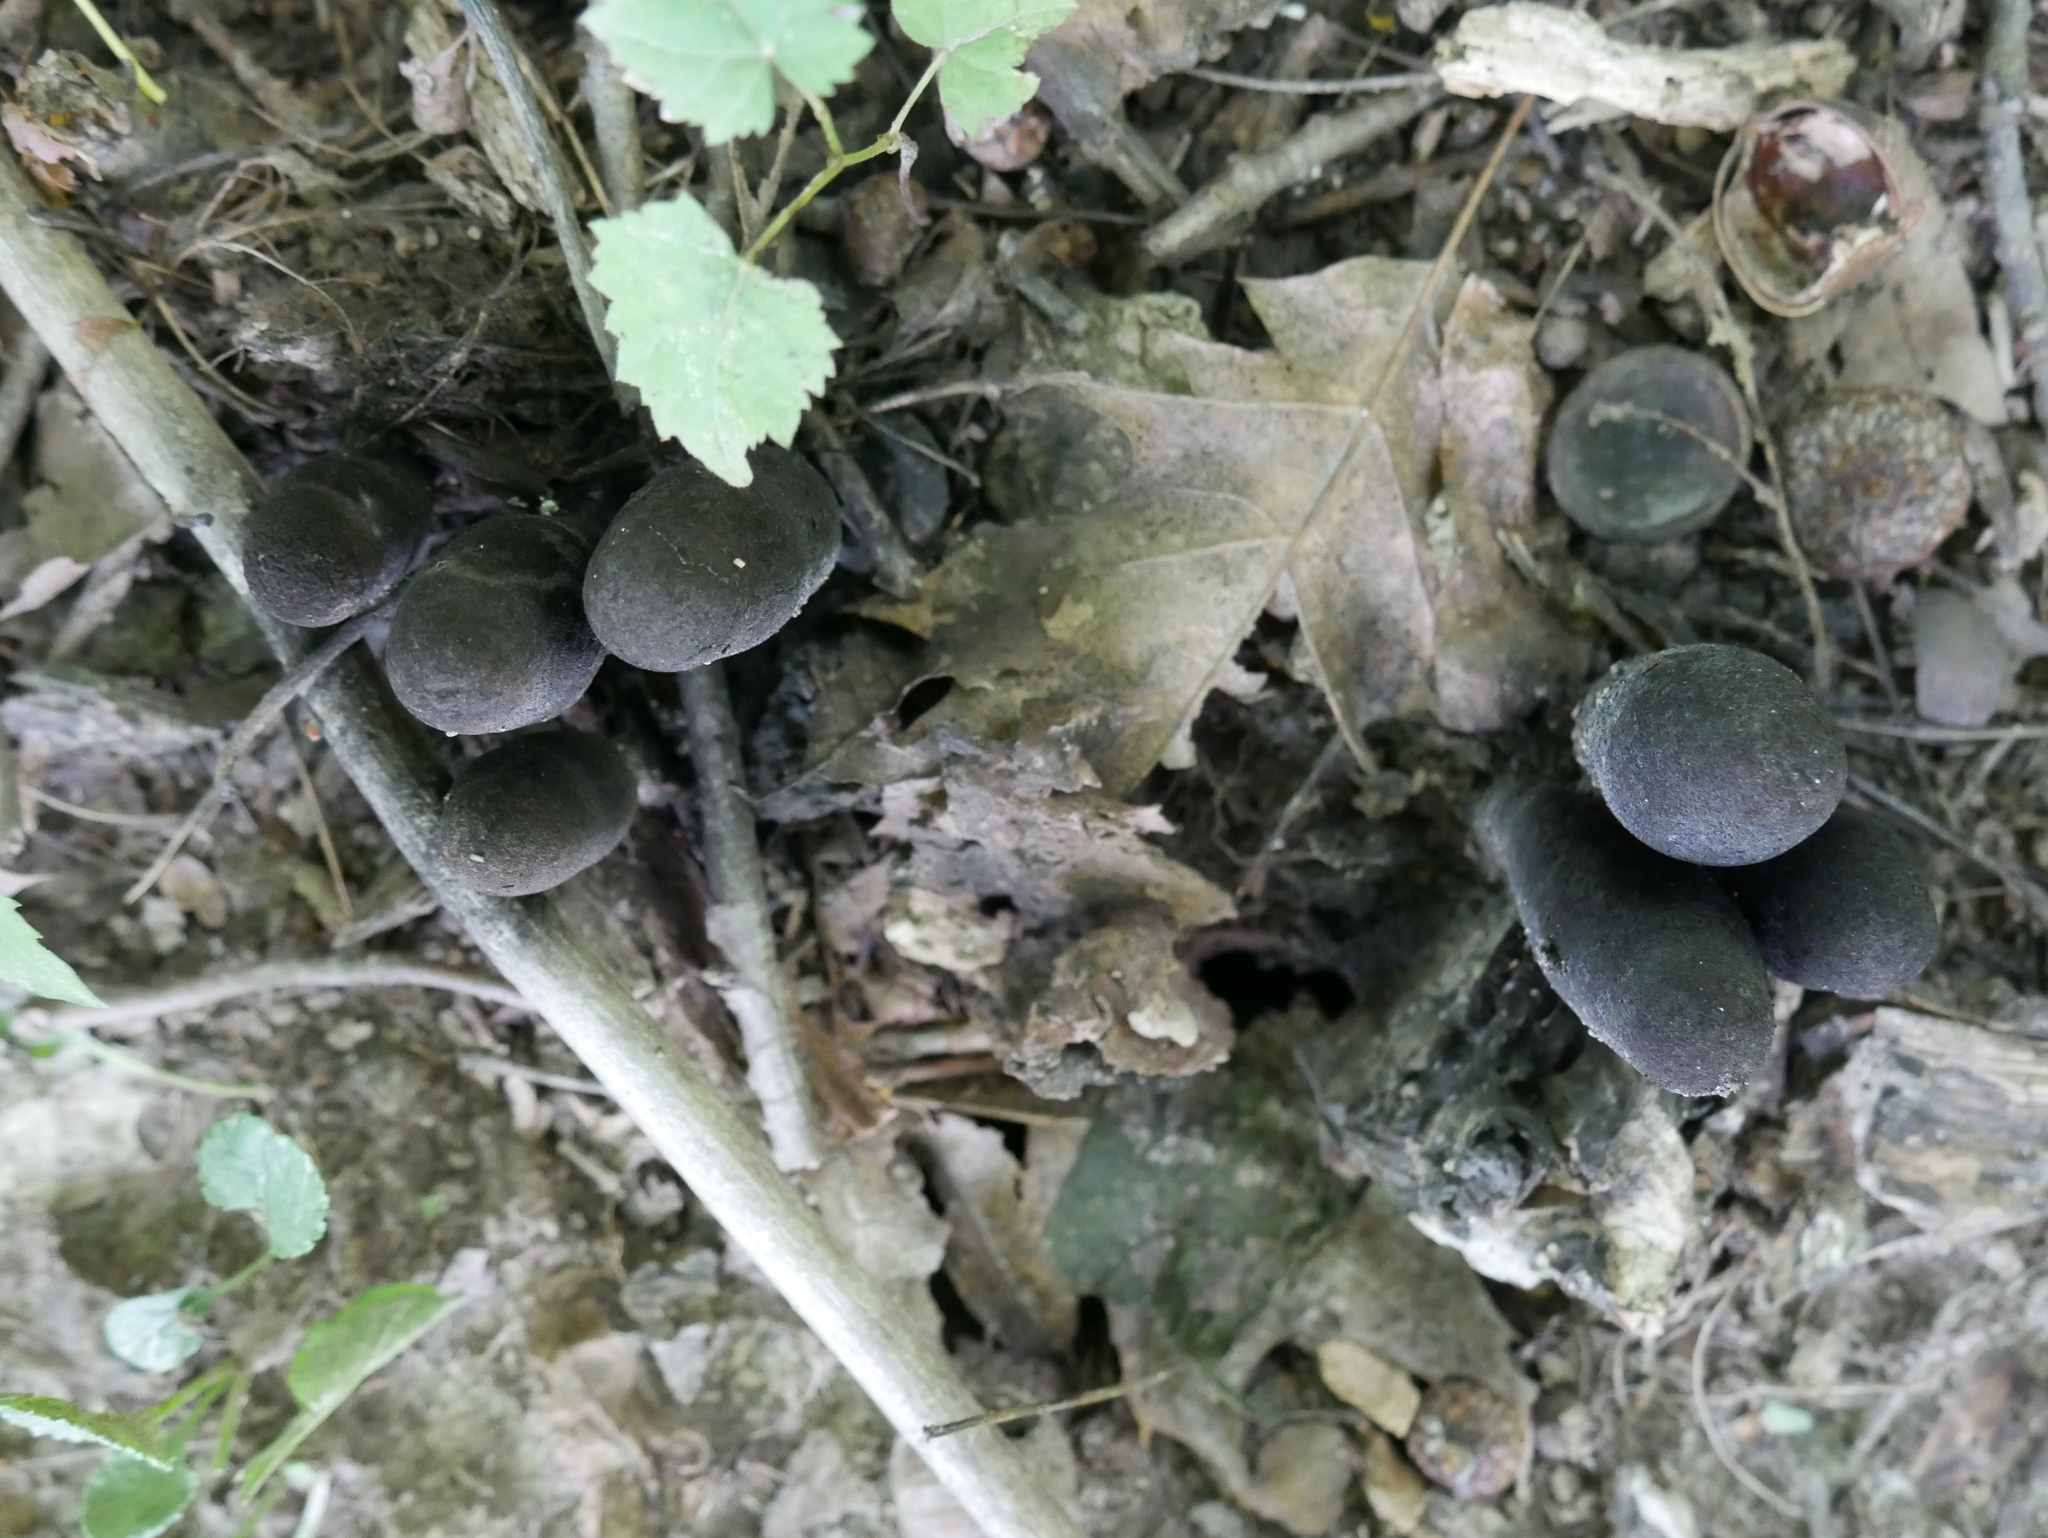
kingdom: Fungi
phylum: Ascomycota
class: Sordariomycetes
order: Xylariales
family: Xylariaceae
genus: Xylaria
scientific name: Xylaria polymorpha
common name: Dead man's fingers
